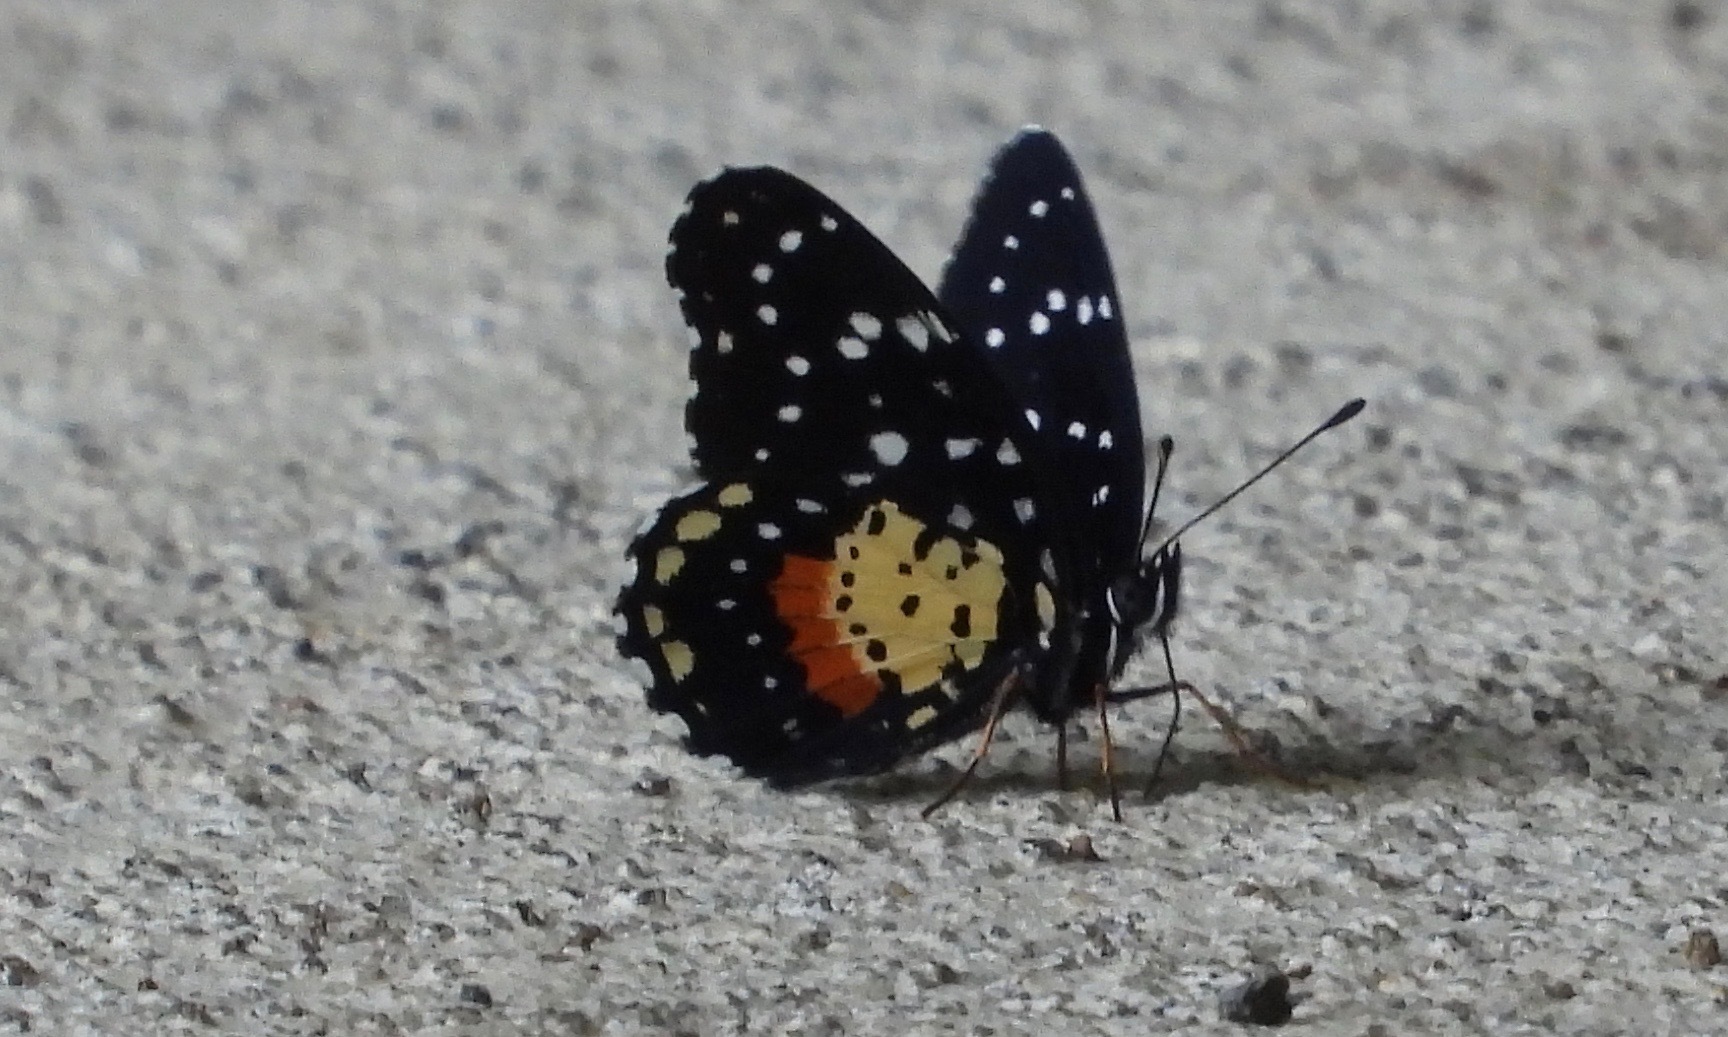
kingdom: Animalia
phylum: Arthropoda
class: Insecta
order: Lepidoptera
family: Nymphalidae
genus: Chlosyne
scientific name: Chlosyne janais
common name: Crimson patch
